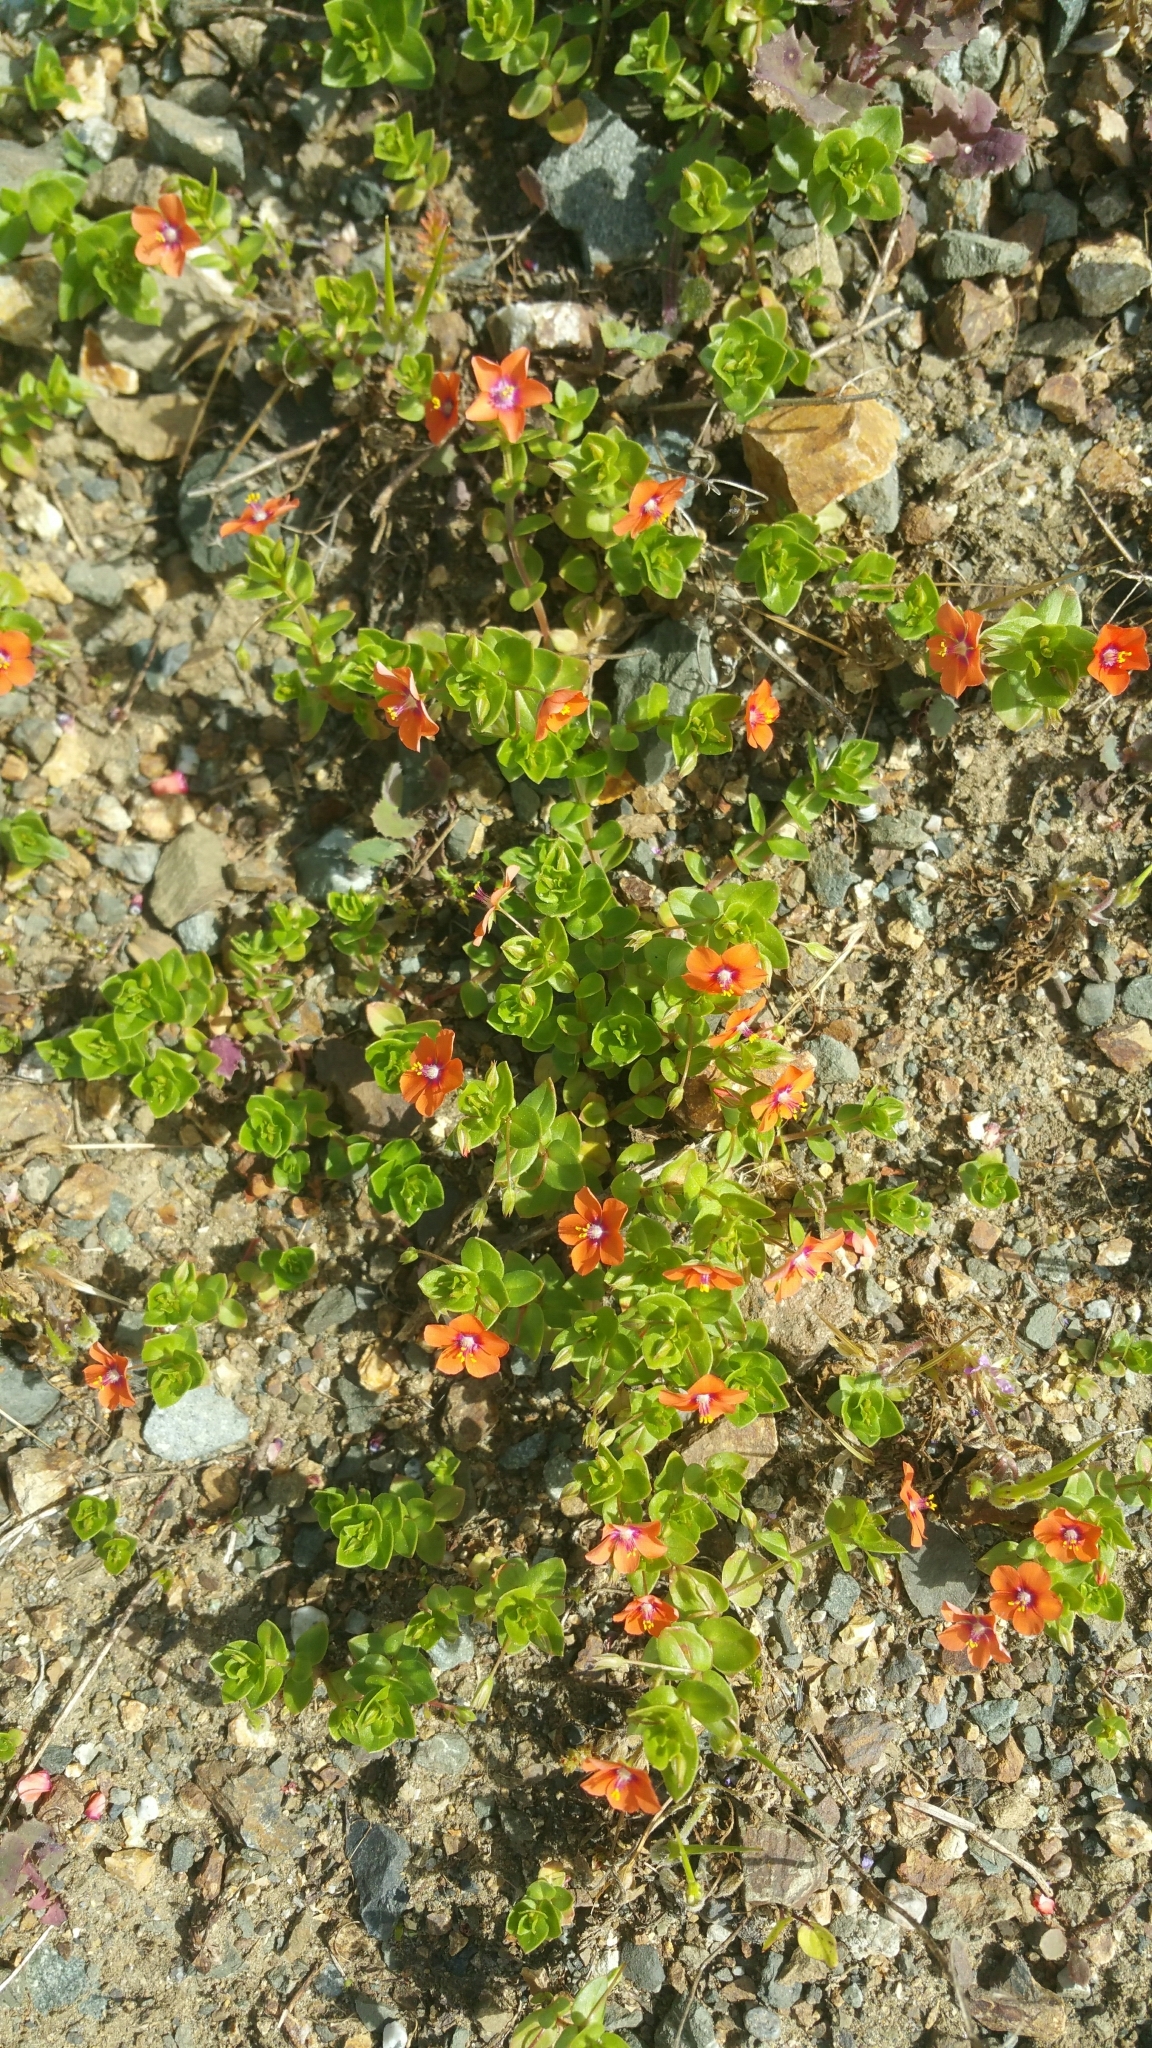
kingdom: Plantae
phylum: Tracheophyta
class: Magnoliopsida
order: Ericales
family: Primulaceae
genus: Lysimachia
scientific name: Lysimachia arvensis
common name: Scarlet pimpernel
